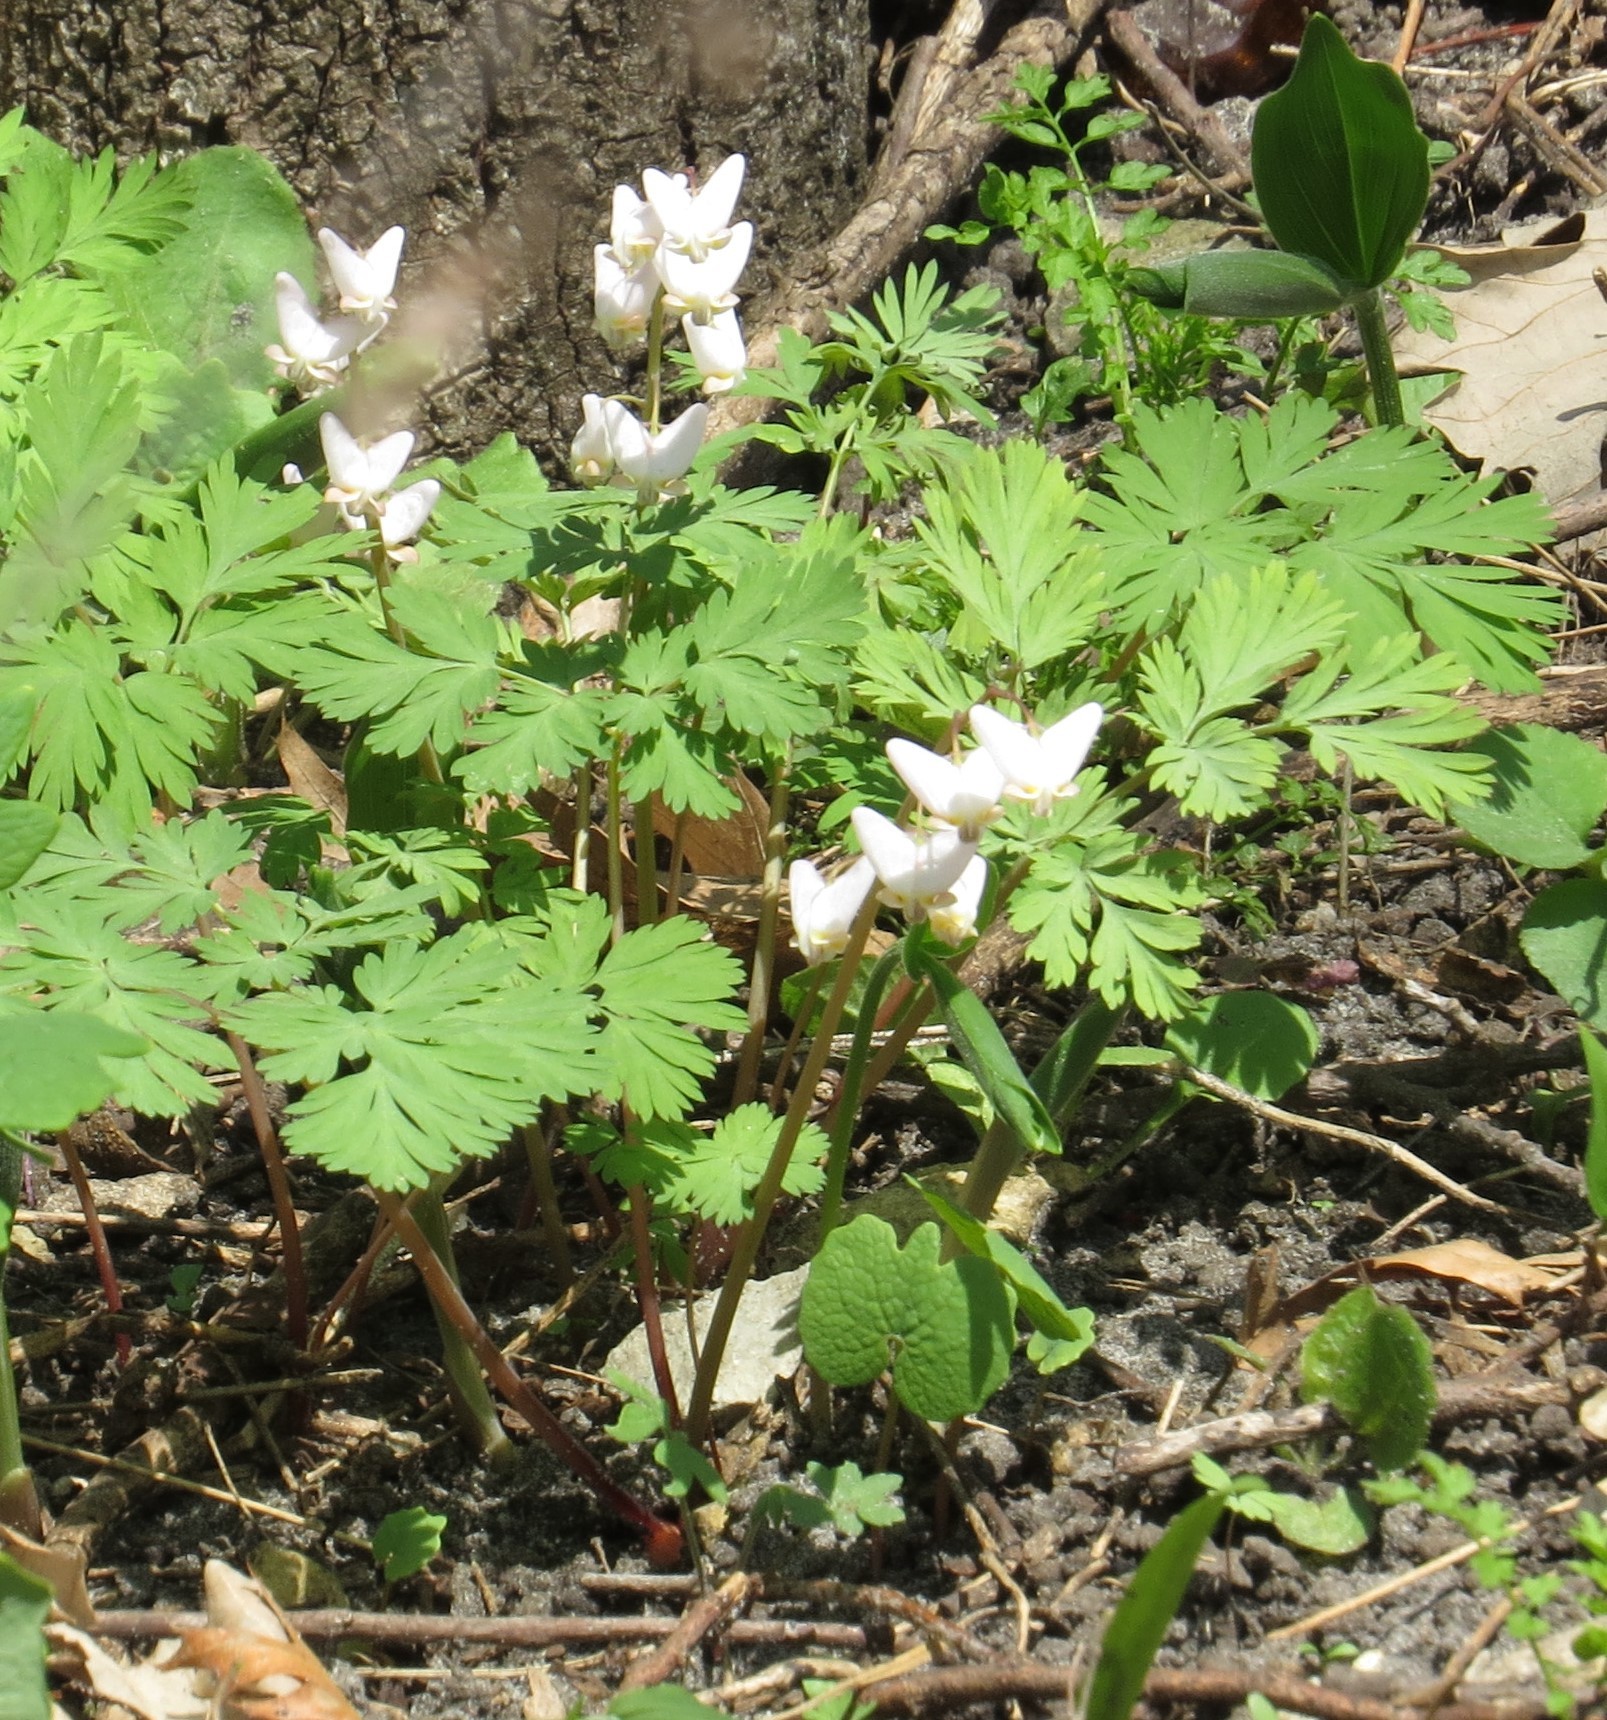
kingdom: Plantae
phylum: Tracheophyta
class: Magnoliopsida
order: Ranunculales
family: Papaveraceae
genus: Dicentra
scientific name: Dicentra cucullaria
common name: Dutchman's breeches
